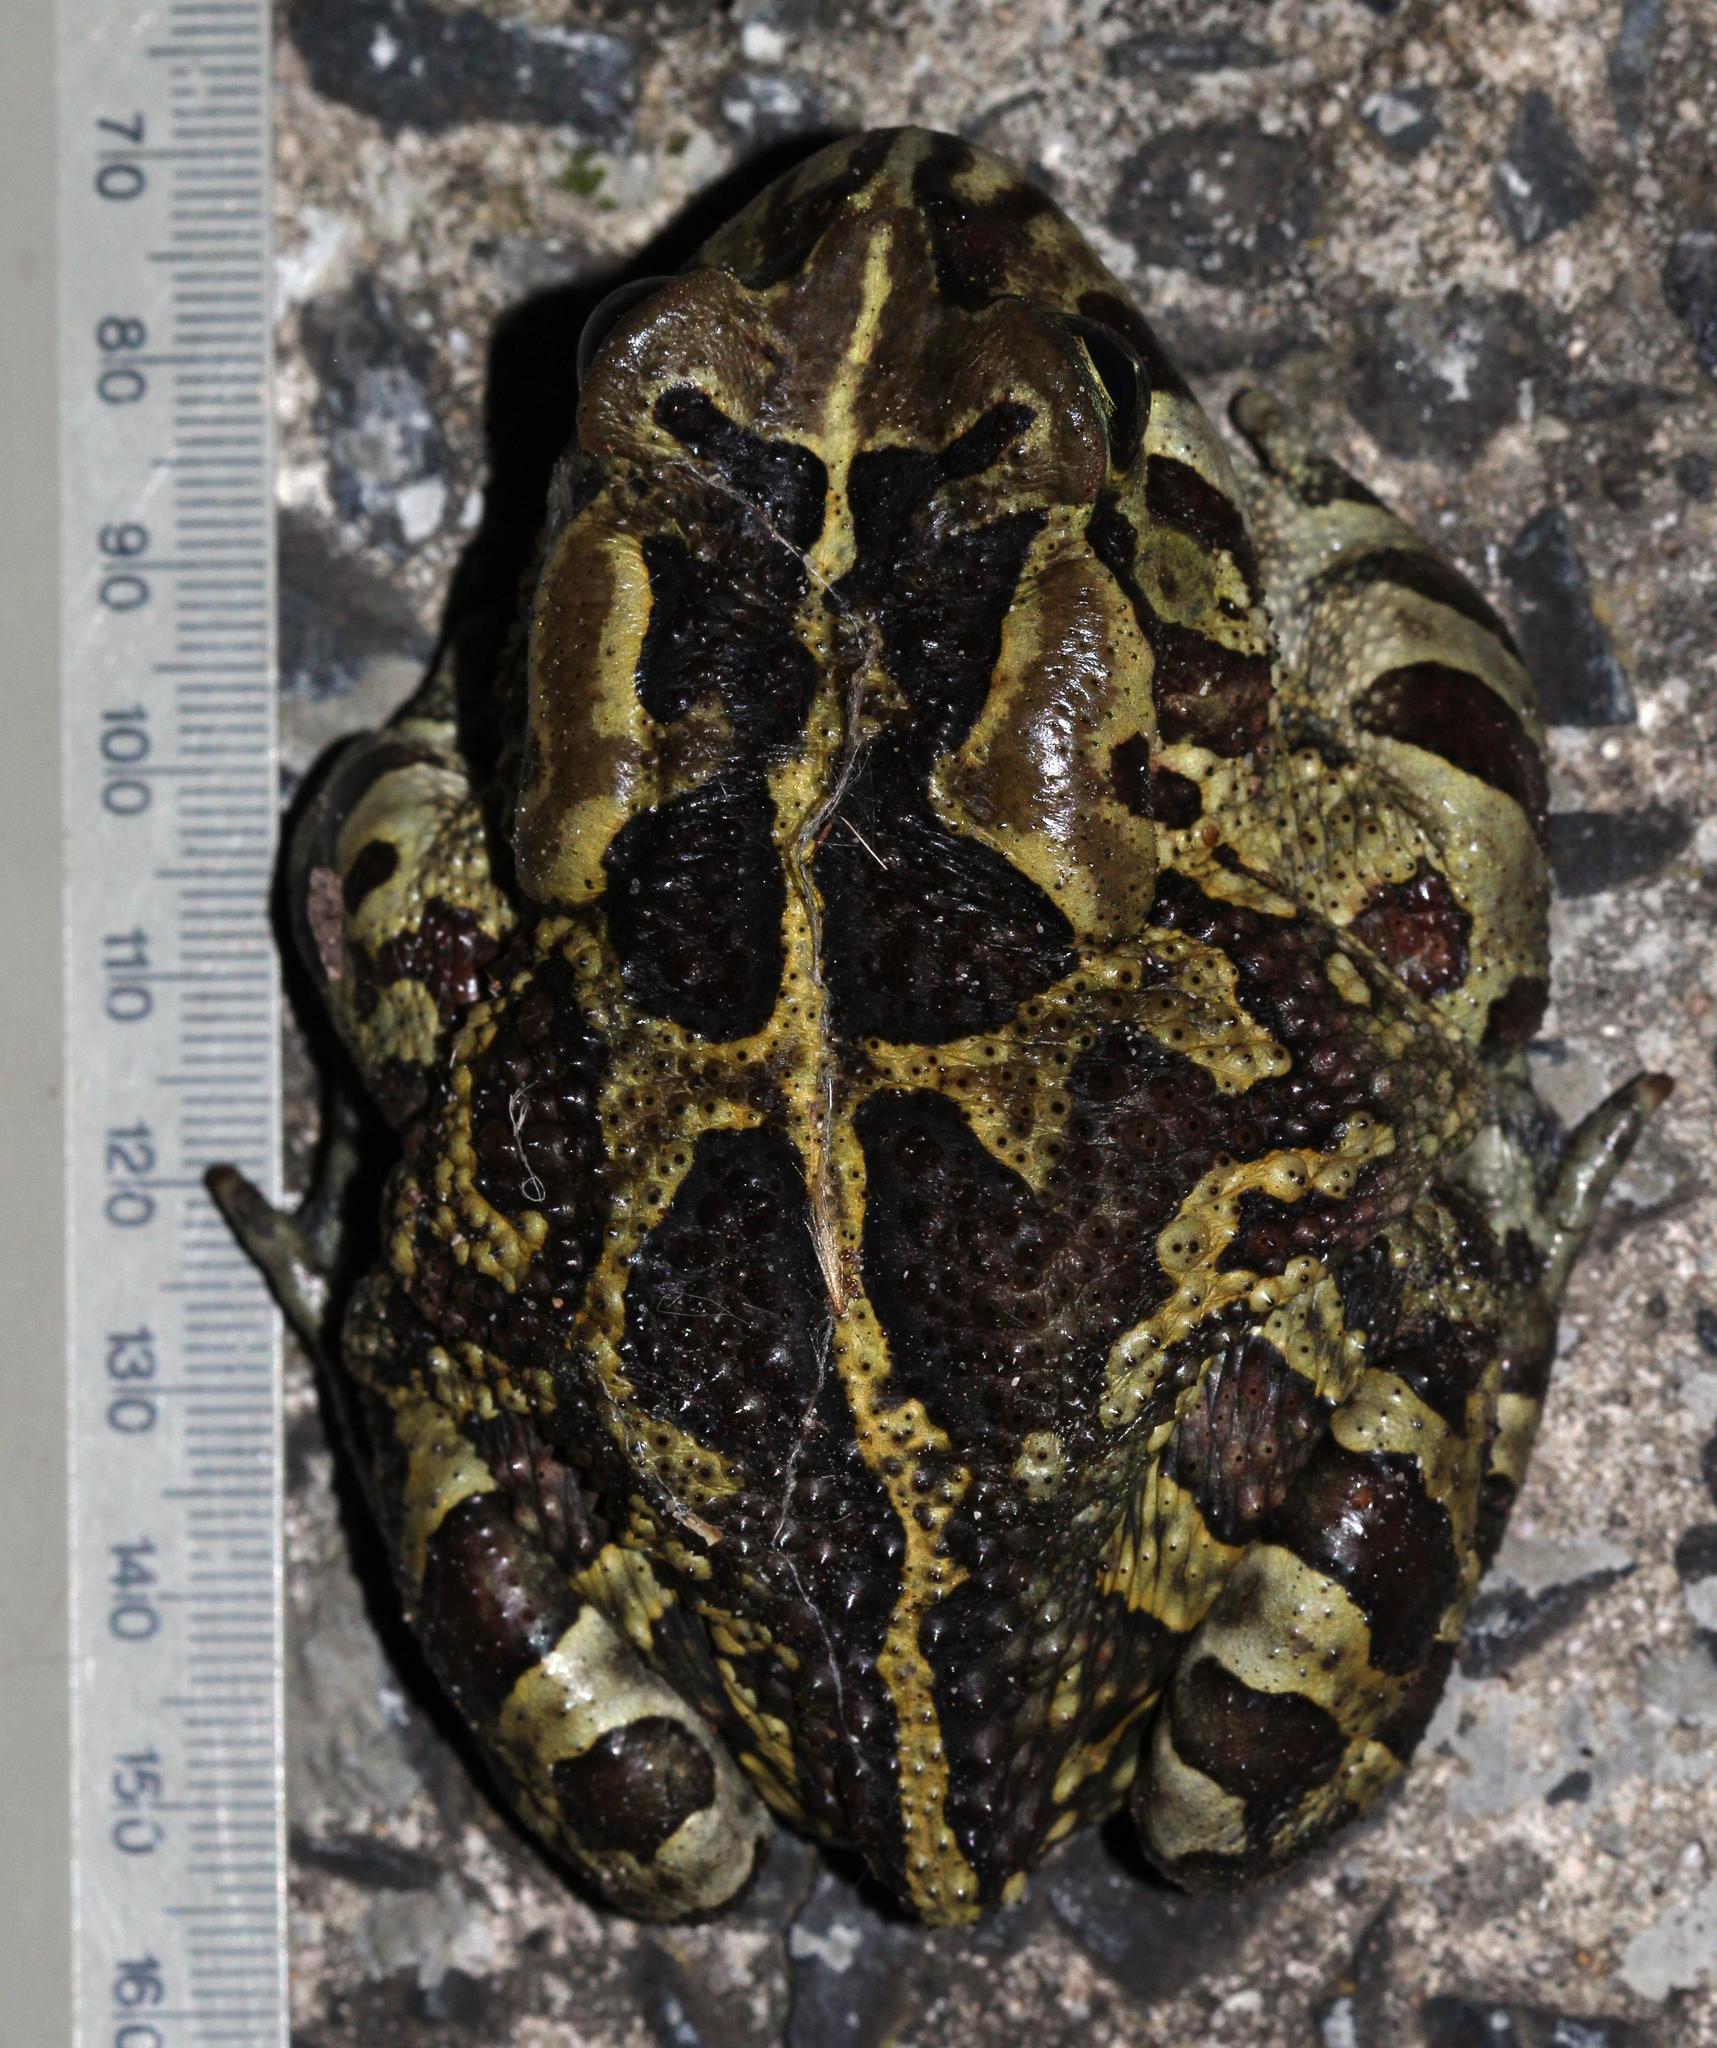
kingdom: Animalia
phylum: Chordata
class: Amphibia
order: Anura
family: Bufonidae
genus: Sclerophrys
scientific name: Sclerophrys pantherina
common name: Panther toad
